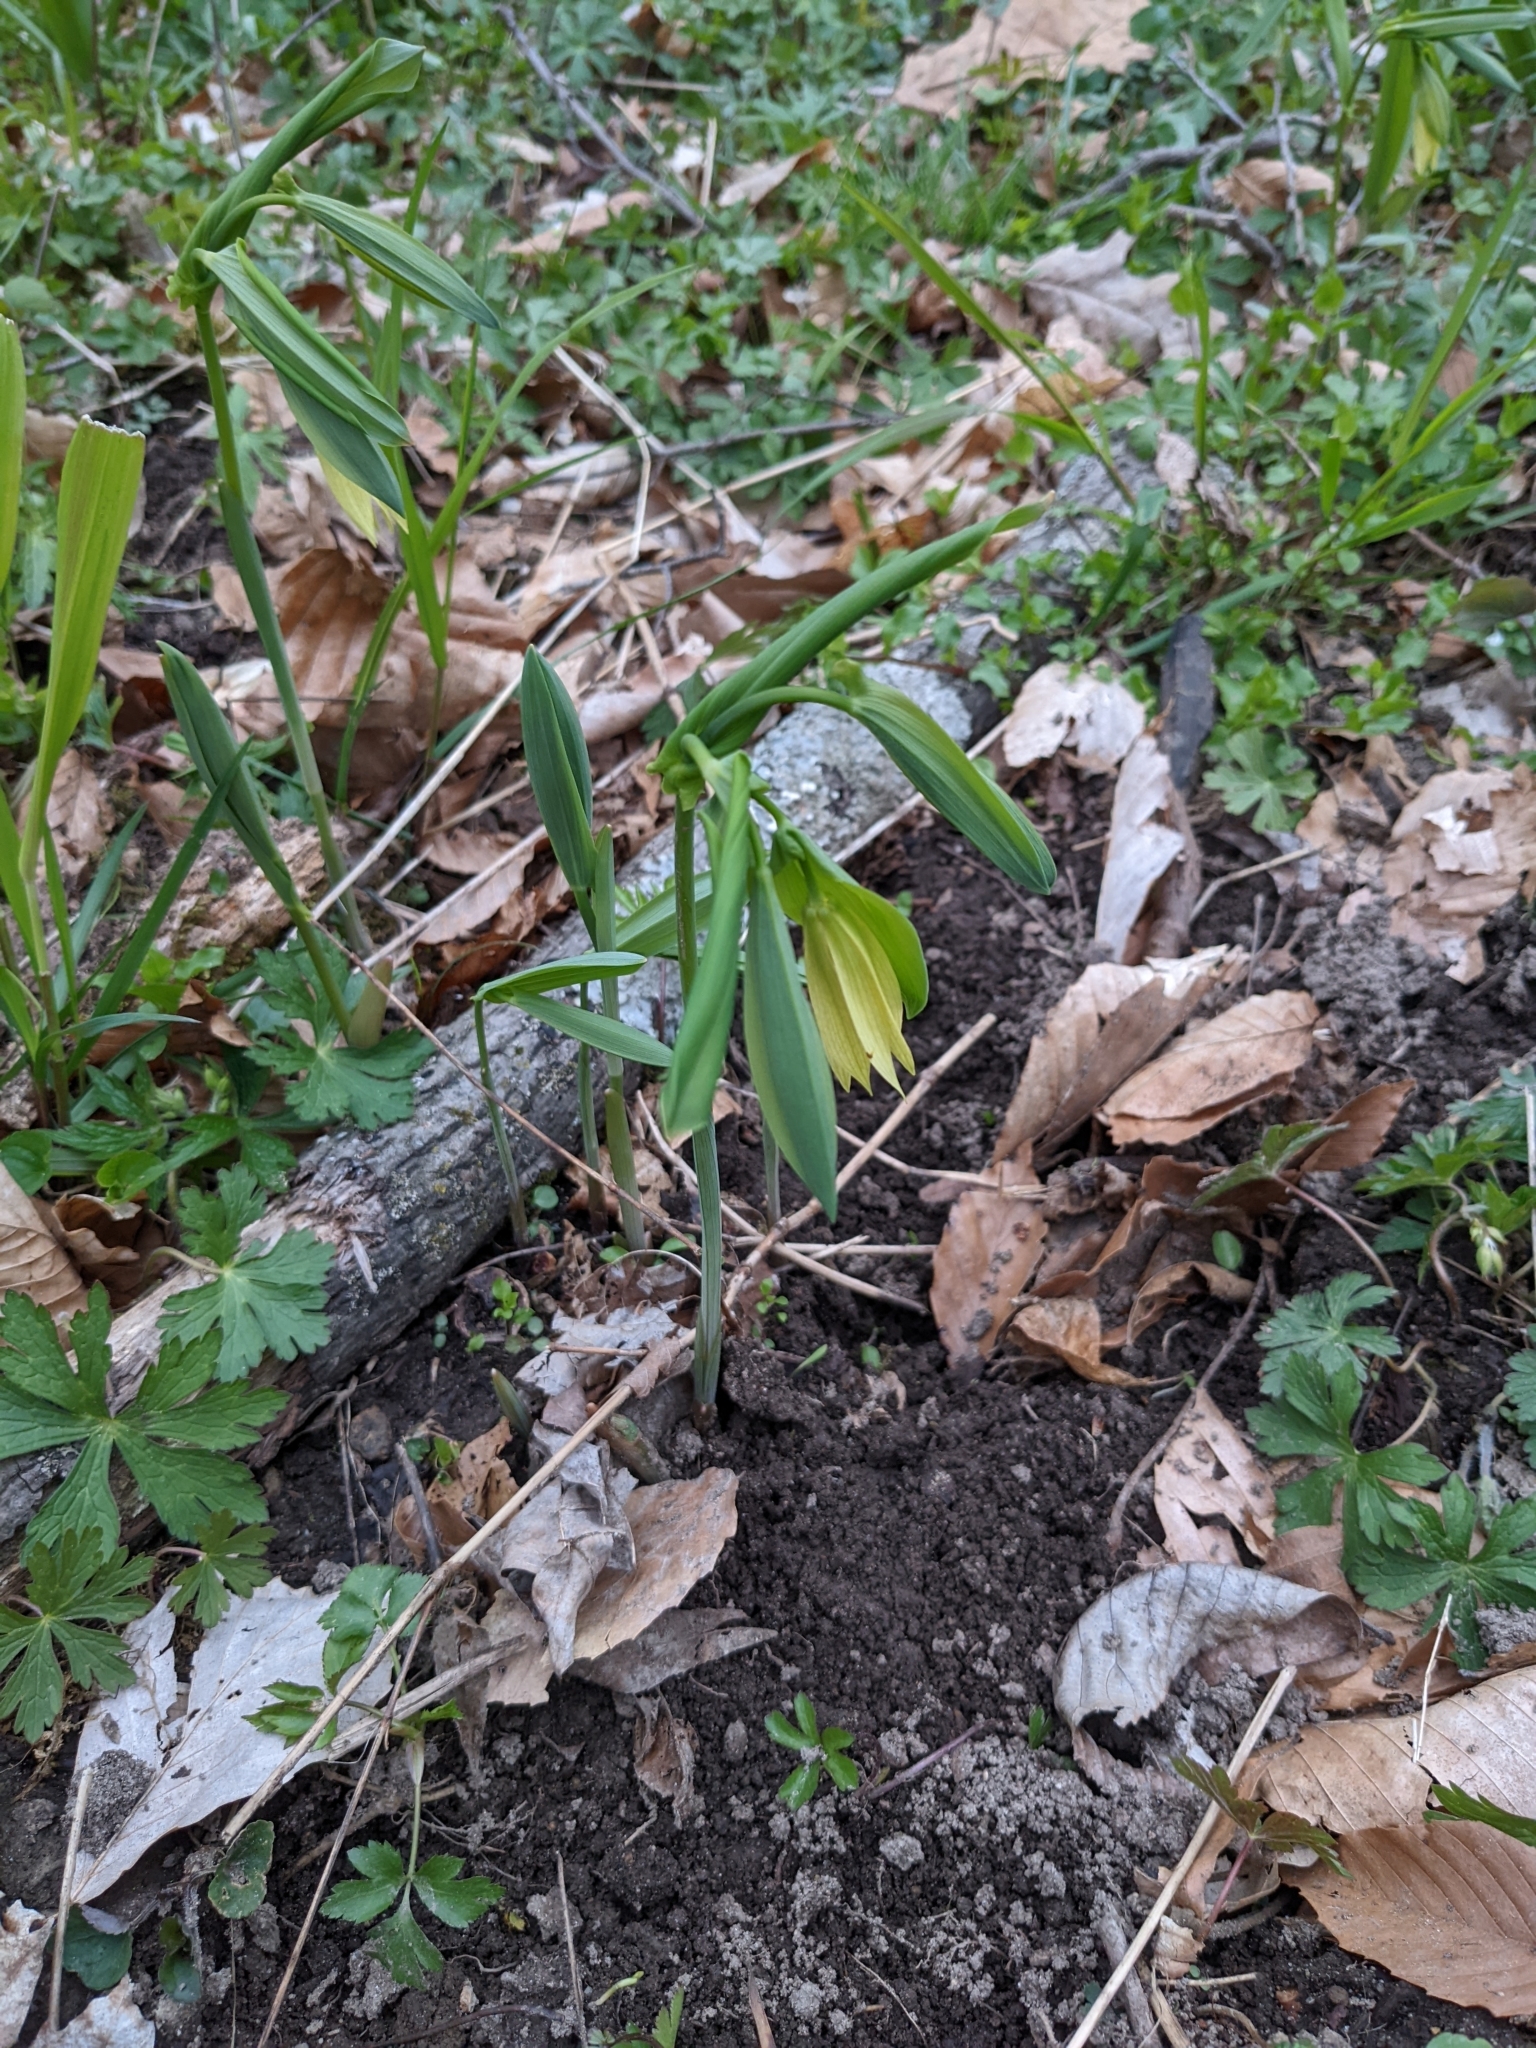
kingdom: Plantae
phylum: Tracheophyta
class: Liliopsida
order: Liliales
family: Colchicaceae
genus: Uvularia
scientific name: Uvularia grandiflora
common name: Bellwort
